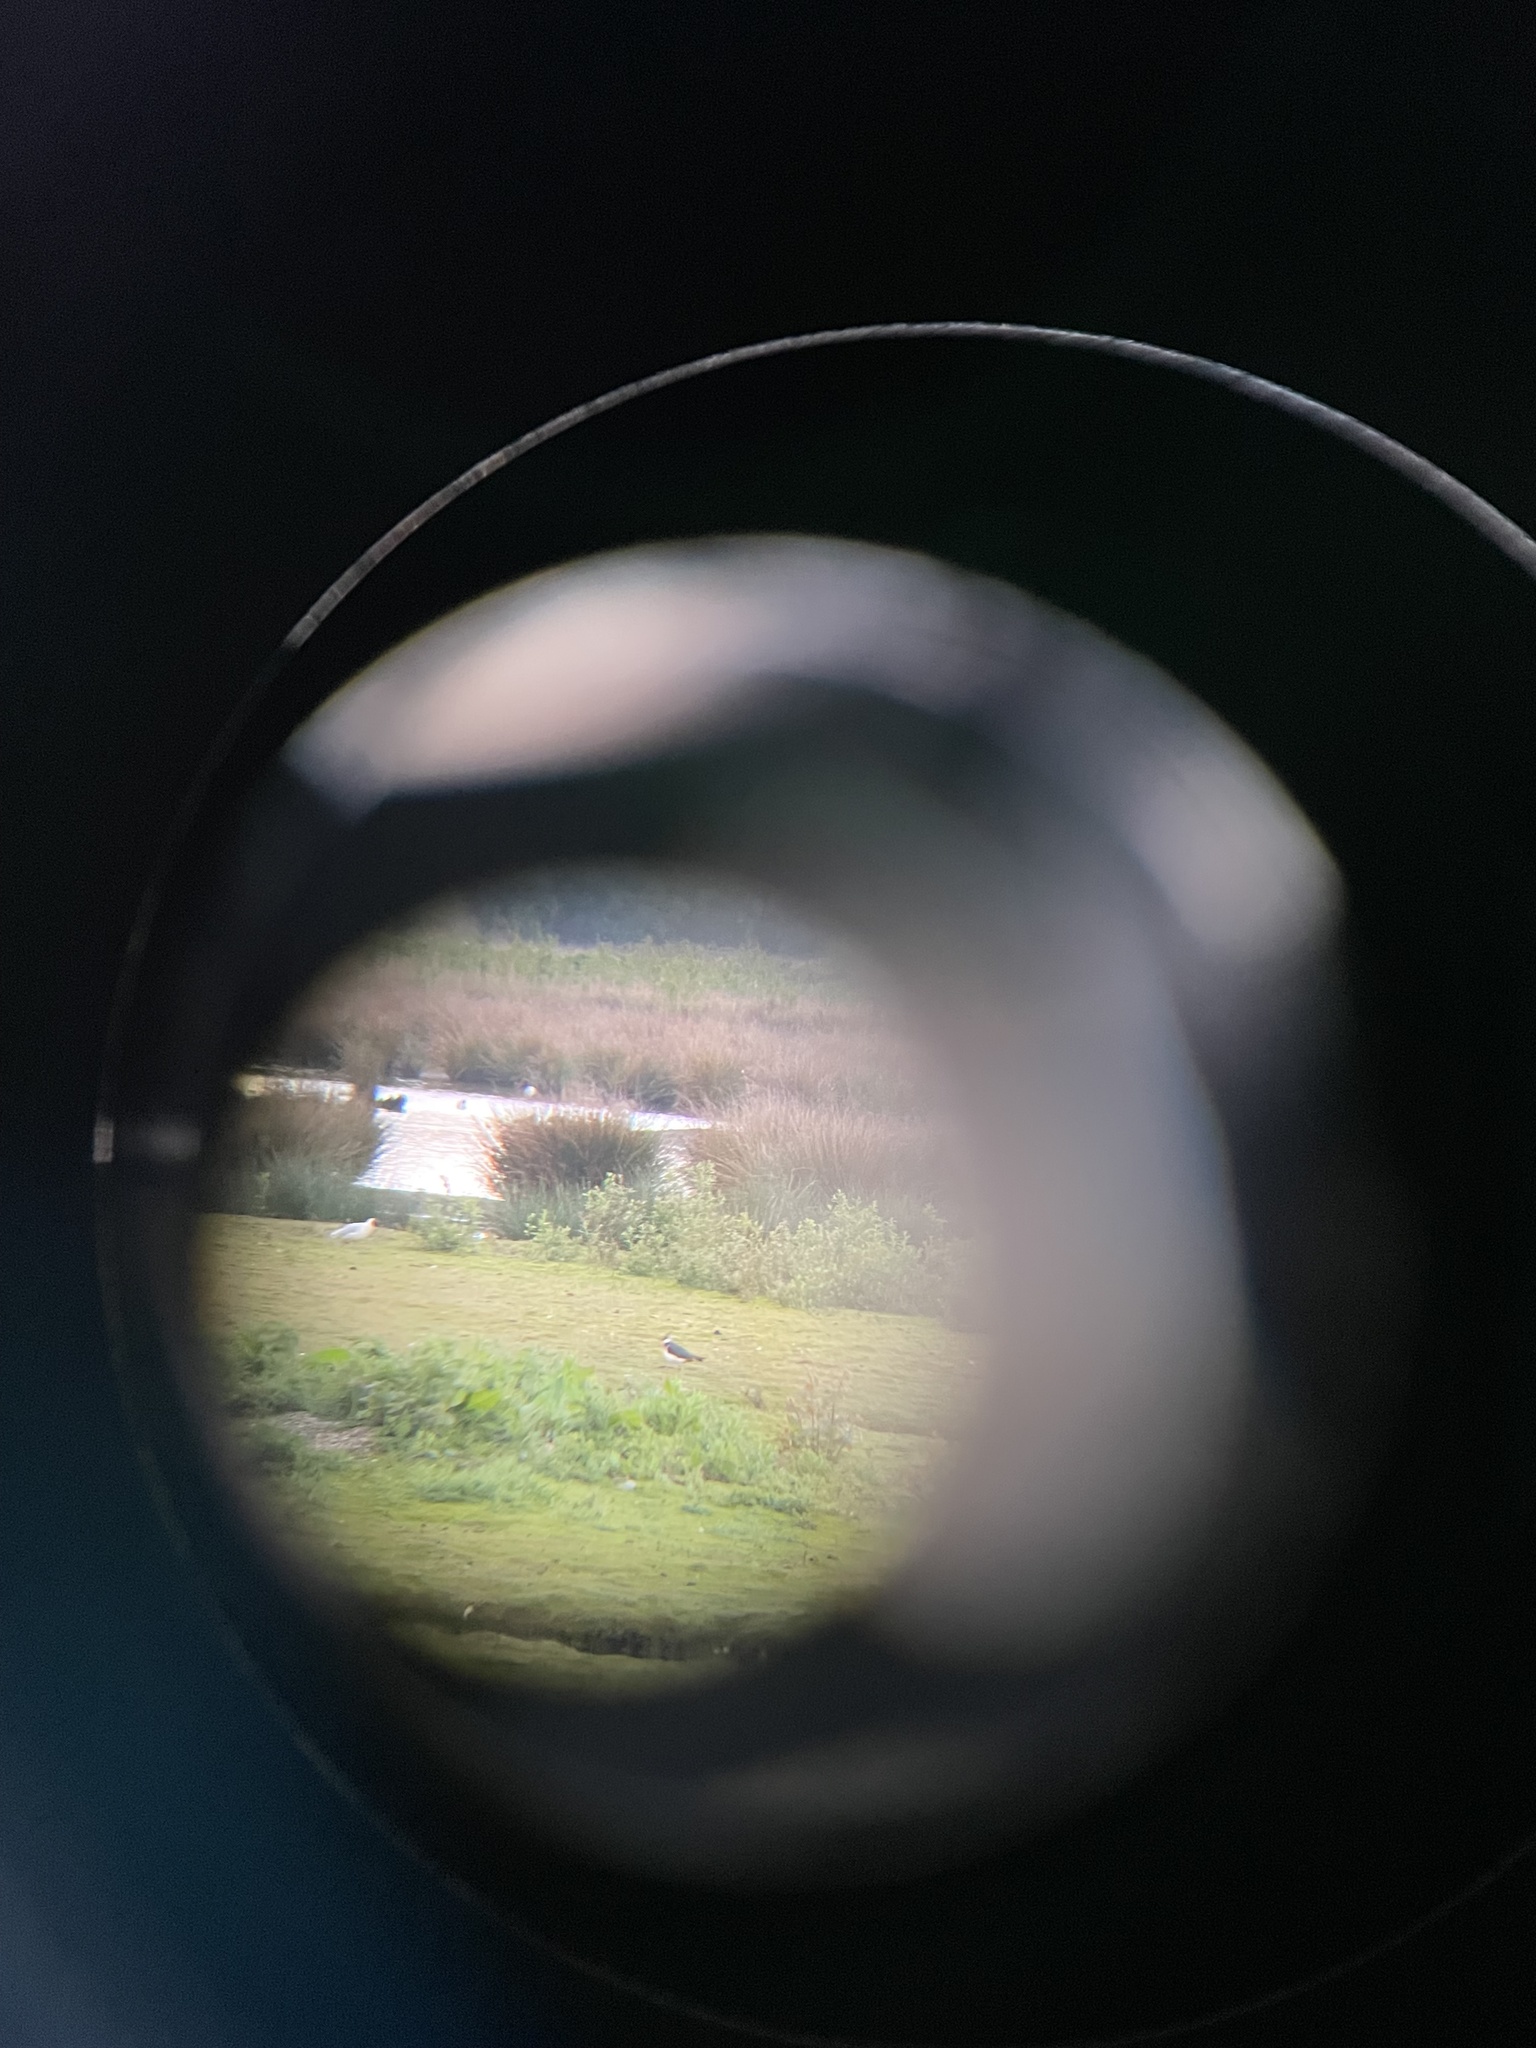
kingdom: Animalia
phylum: Chordata
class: Aves
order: Charadriiformes
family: Charadriidae
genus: Vanellus
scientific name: Vanellus vanellus
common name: Northern lapwing
